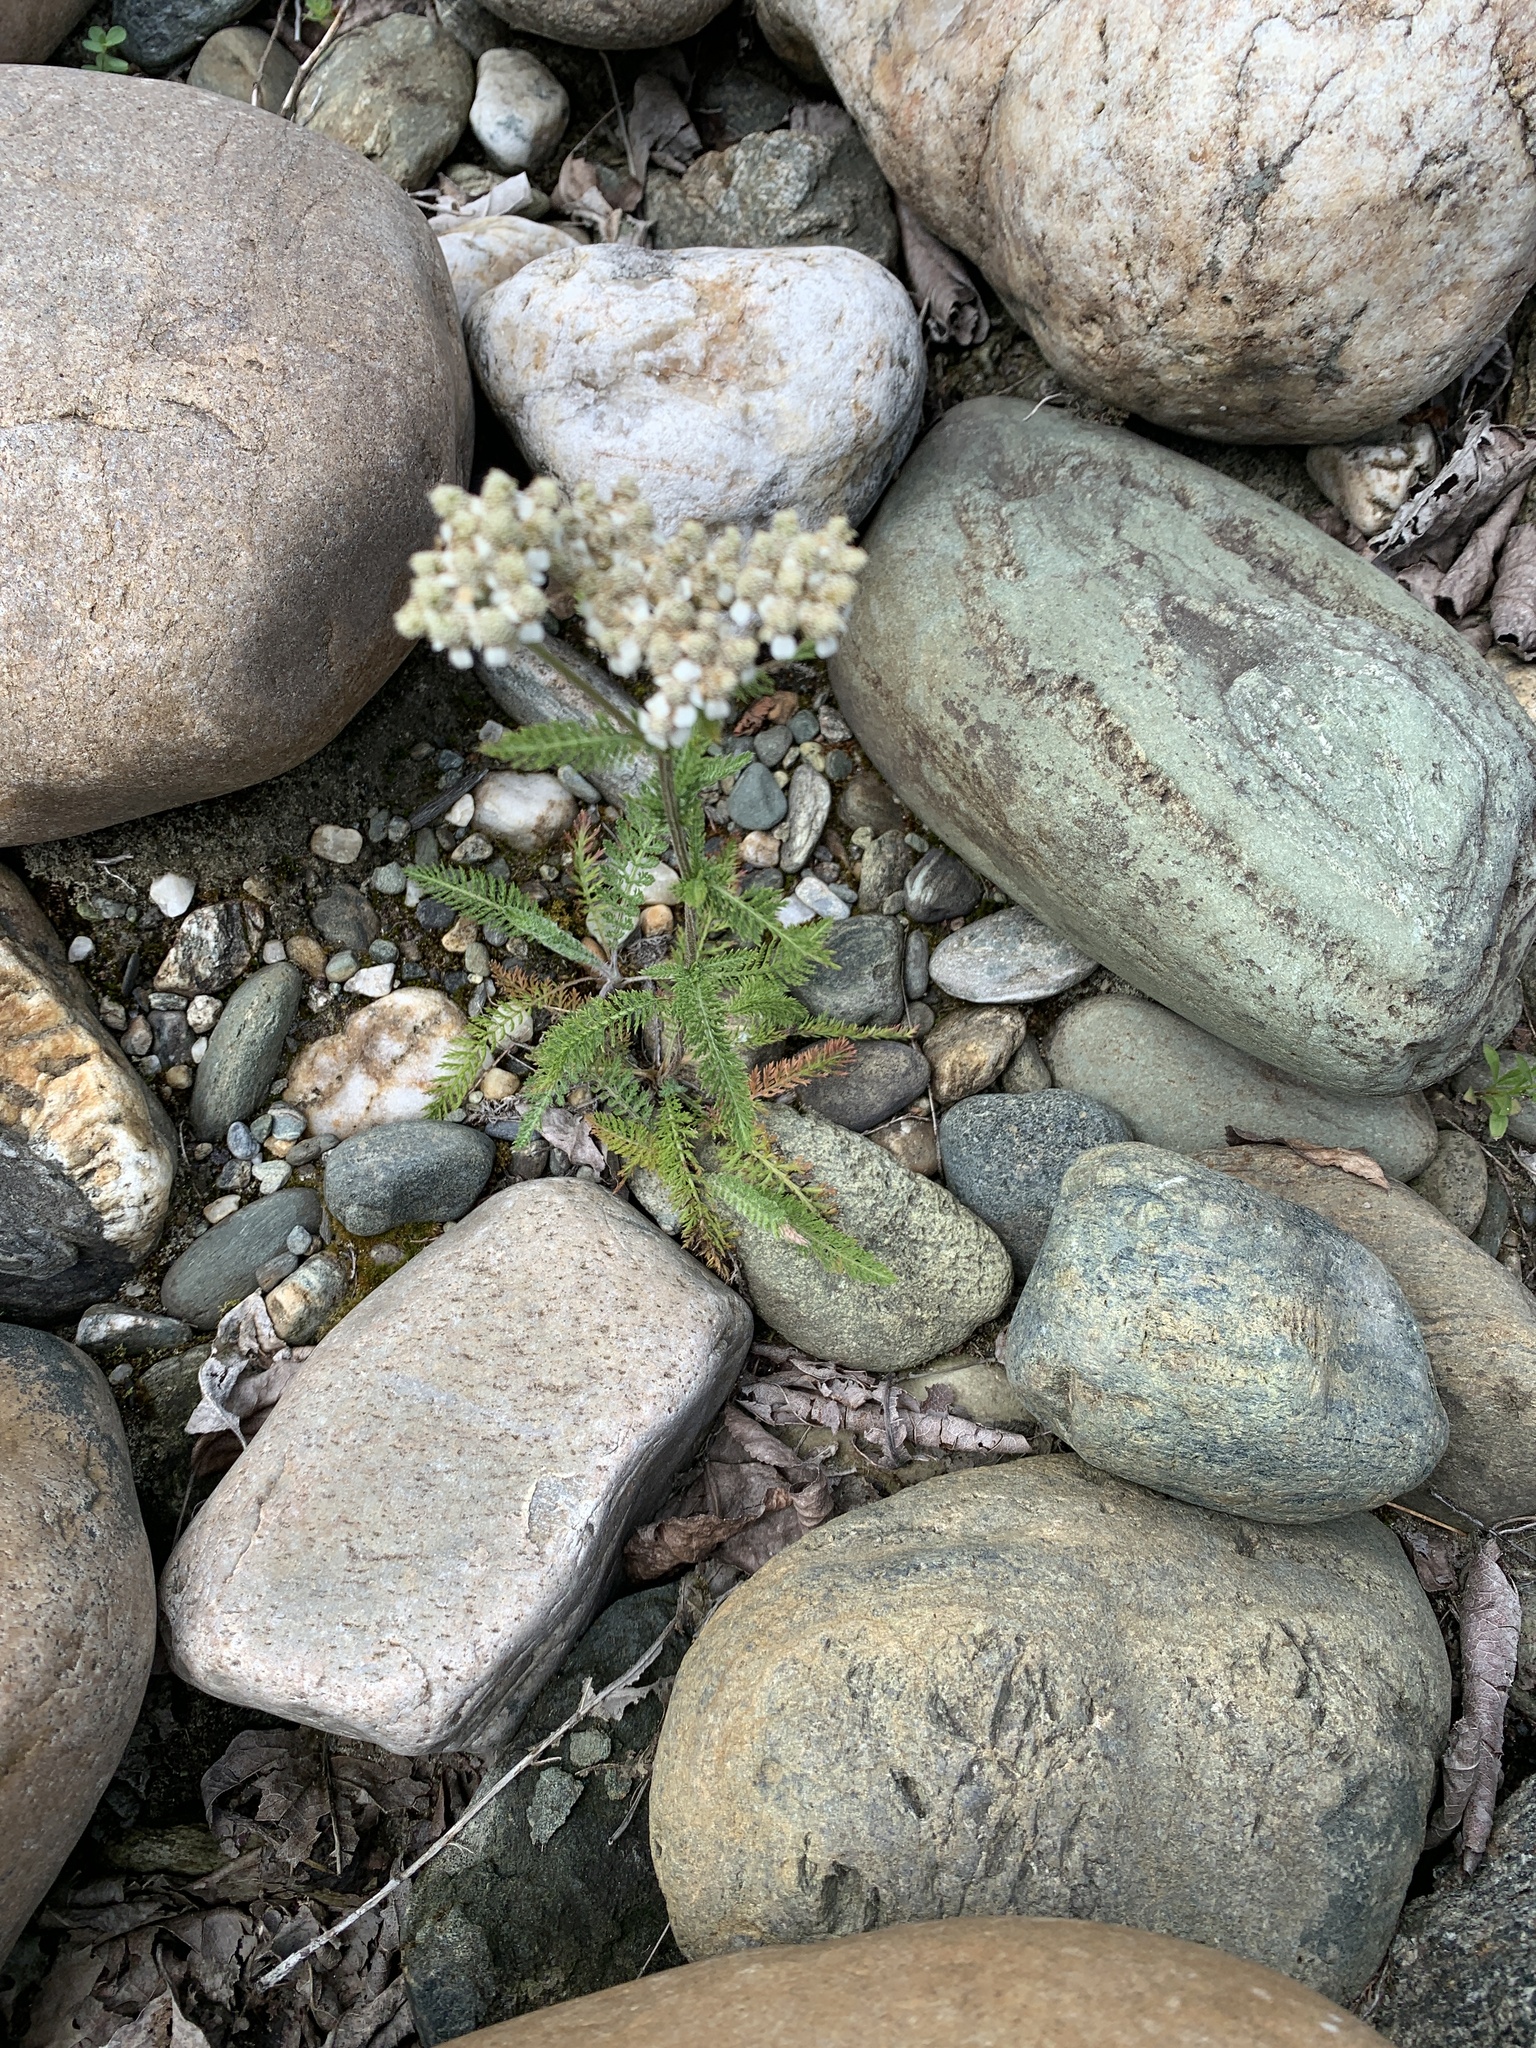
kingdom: Plantae
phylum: Tracheophyta
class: Magnoliopsida
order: Asterales
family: Asteraceae
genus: Achillea
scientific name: Achillea millefolium
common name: Yarrow
